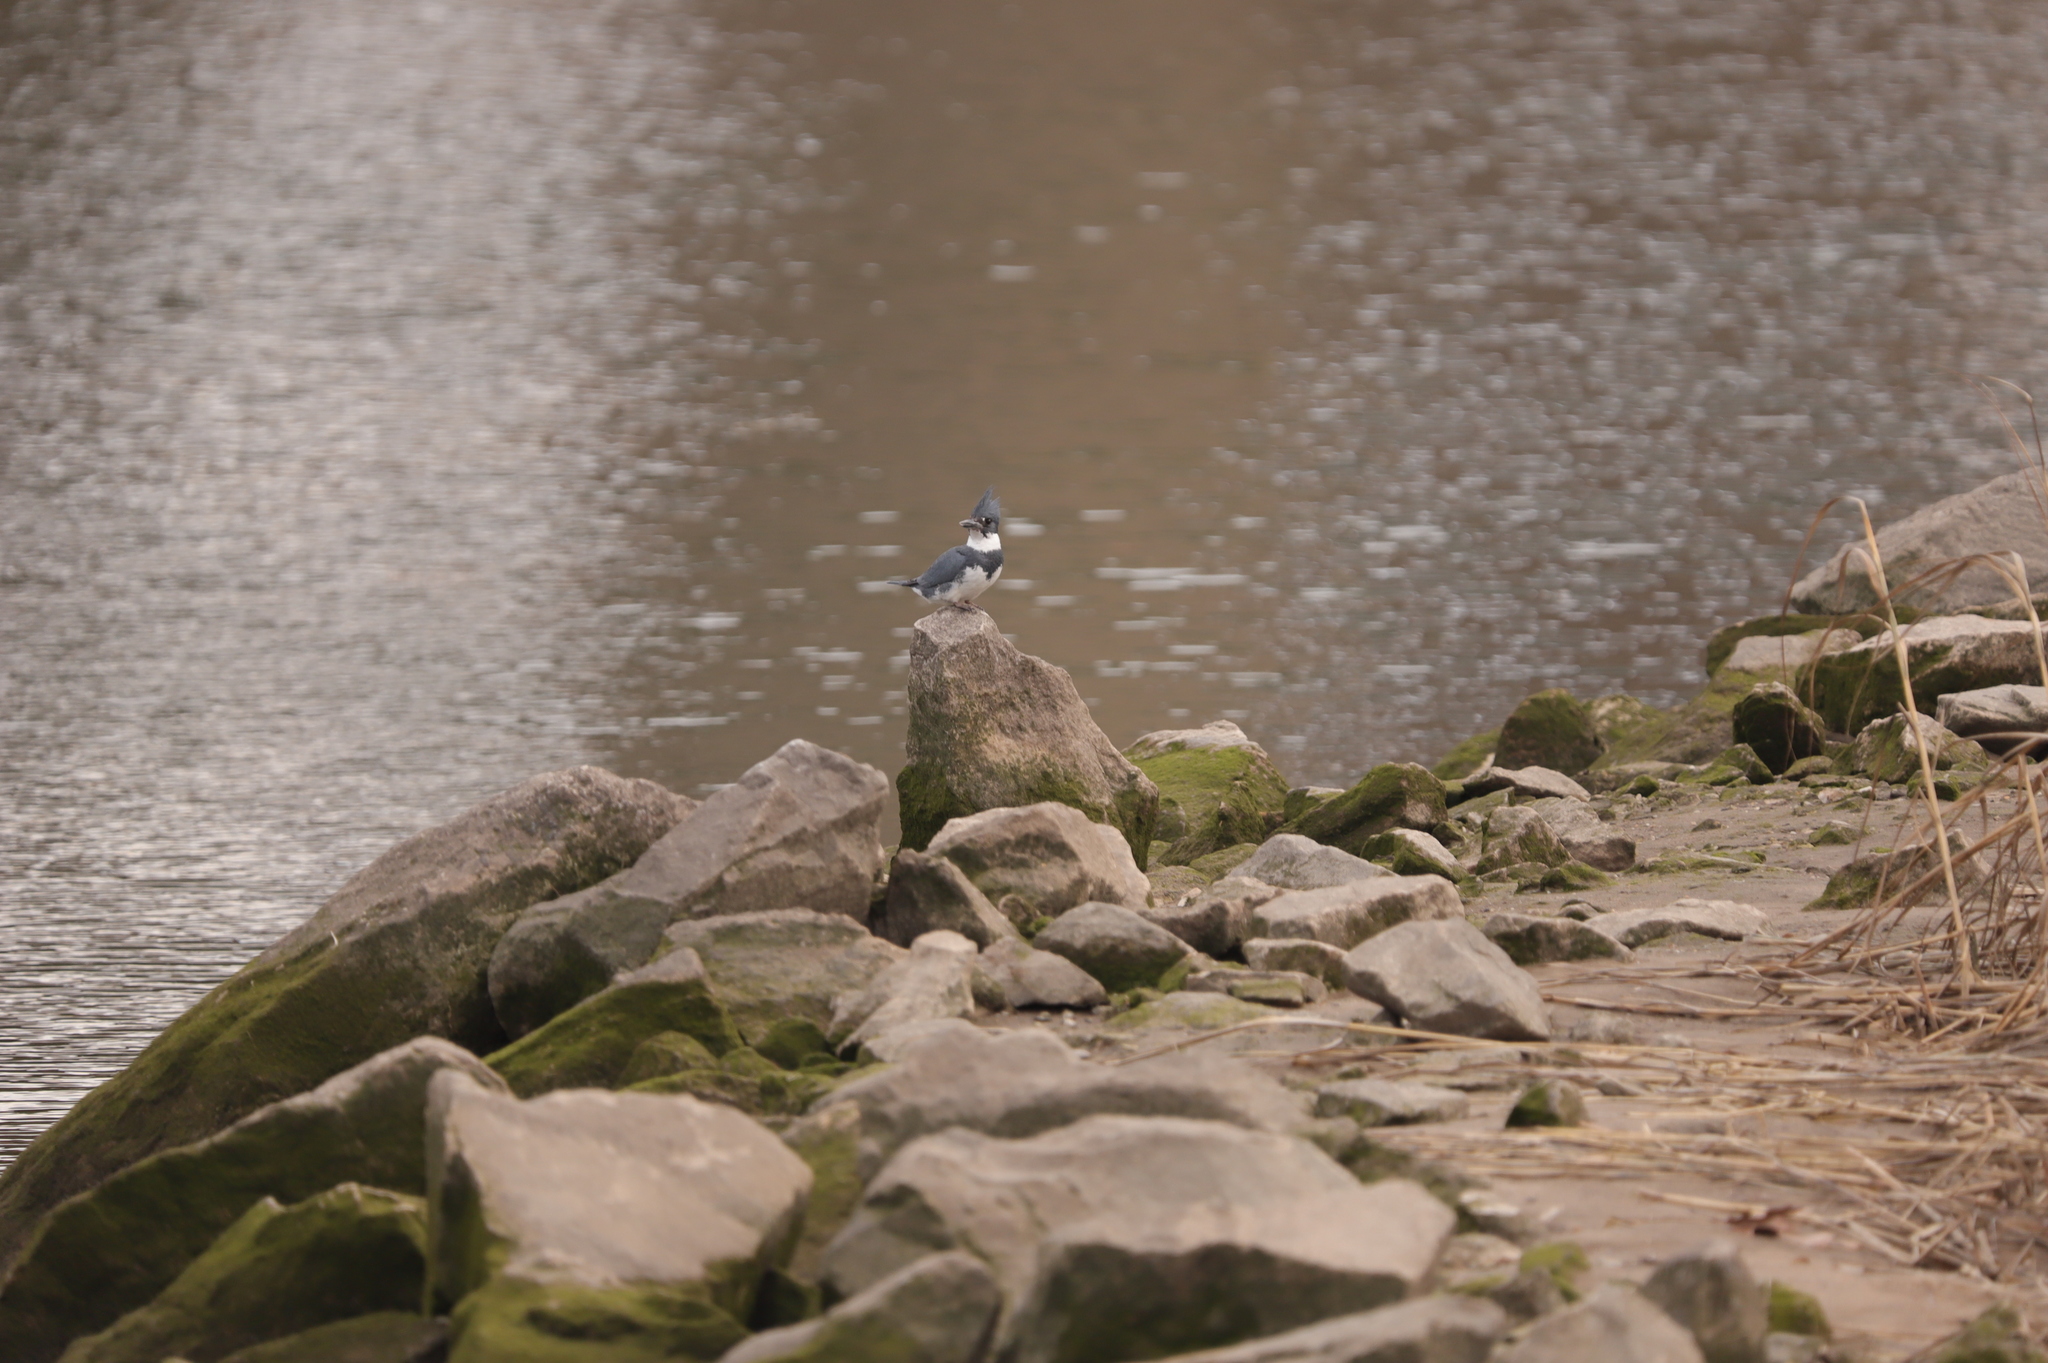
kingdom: Animalia
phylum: Chordata
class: Aves
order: Coraciiformes
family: Alcedinidae
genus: Megaceryle
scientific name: Megaceryle alcyon
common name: Belted kingfisher
